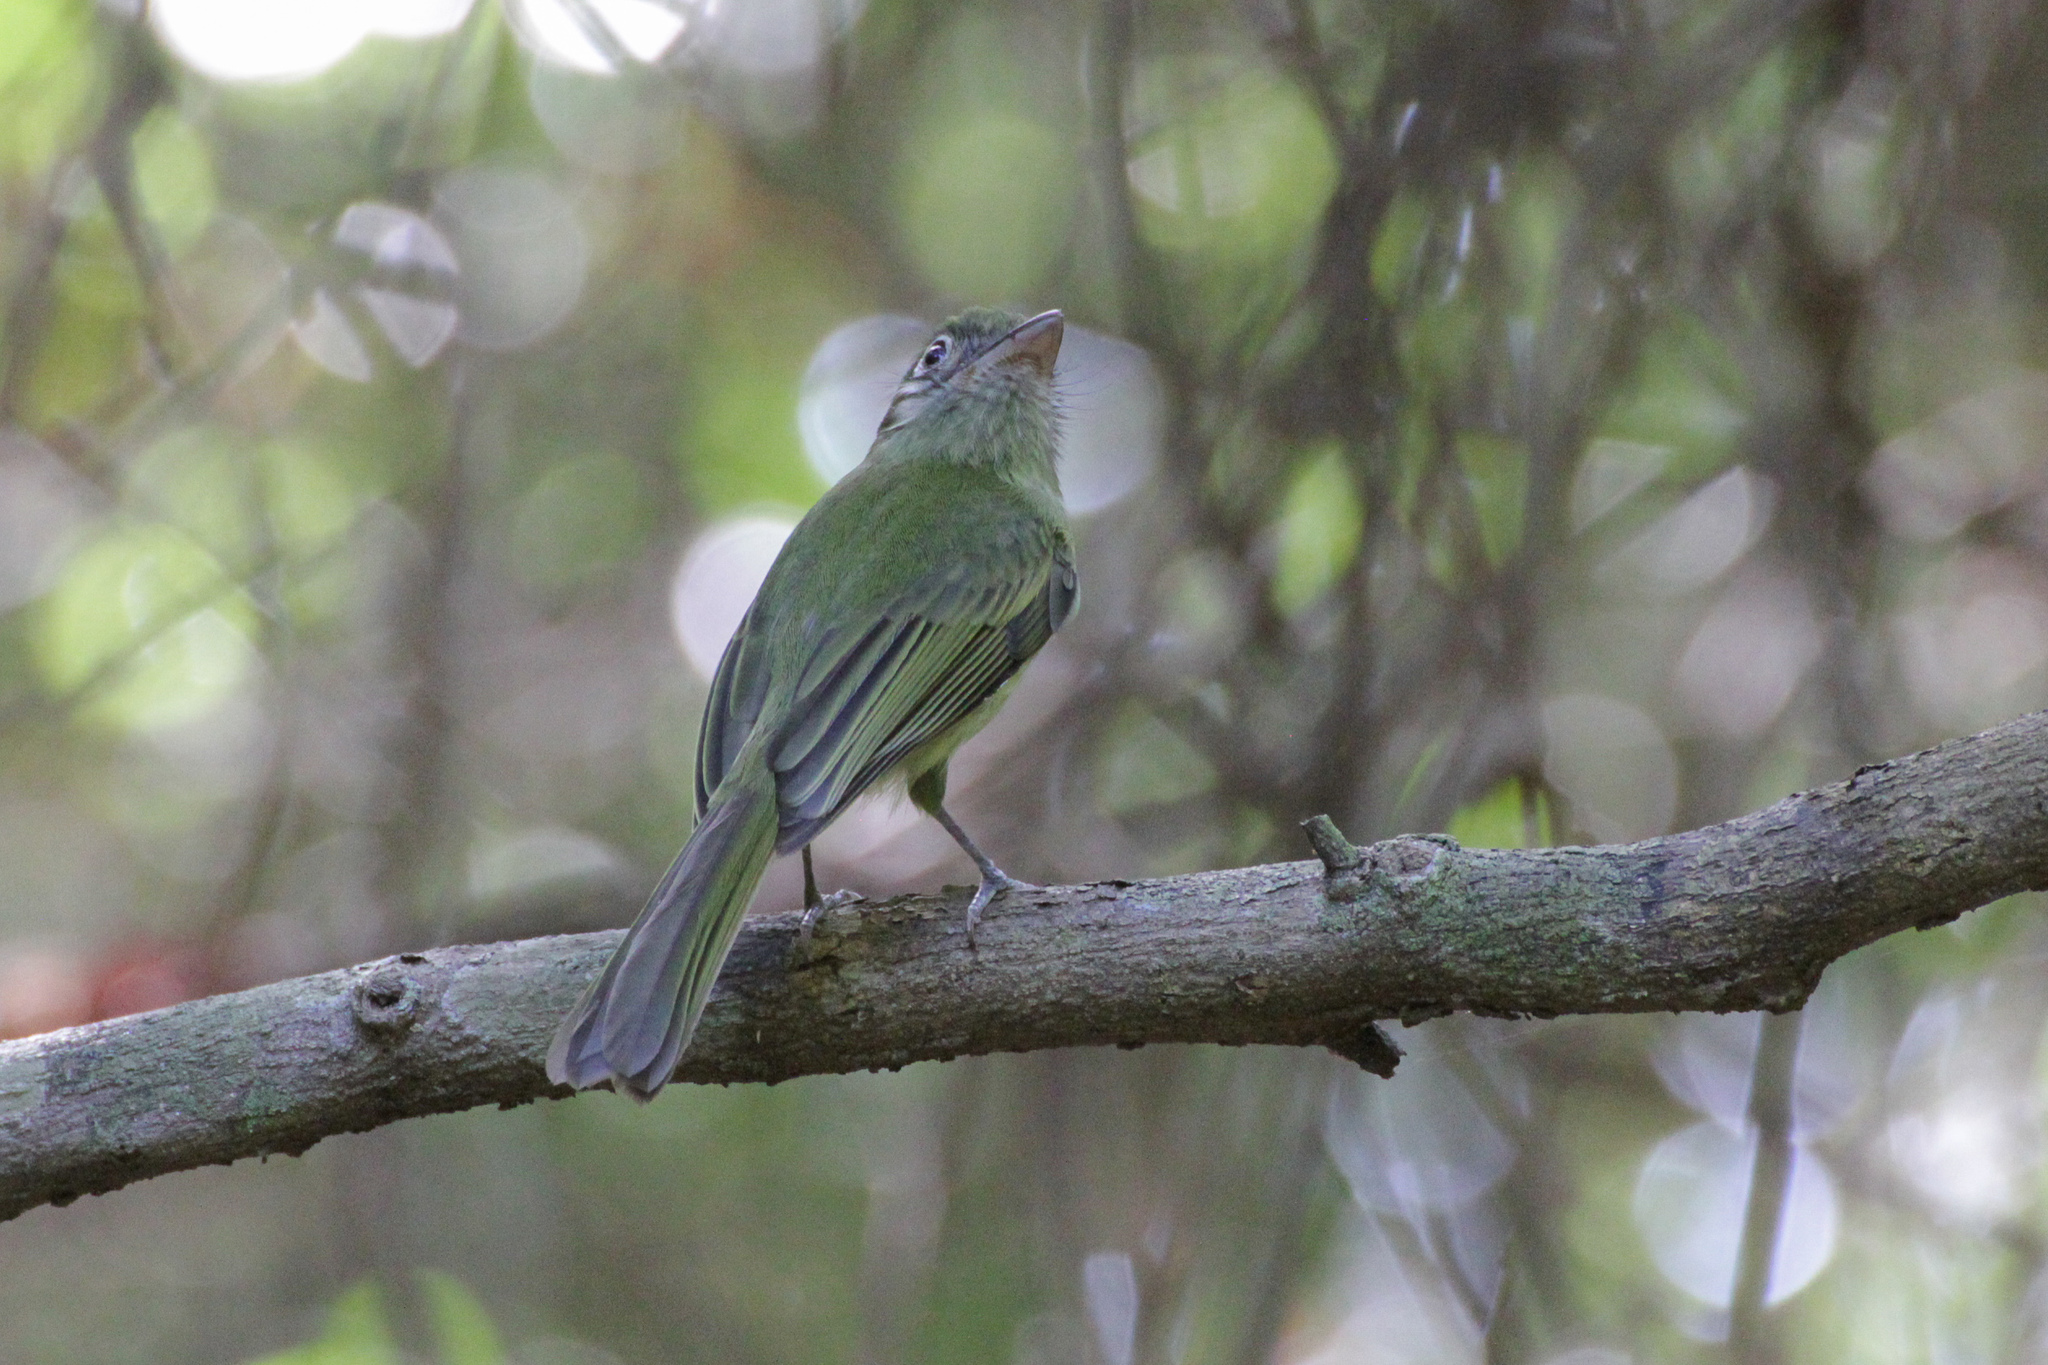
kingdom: Animalia
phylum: Chordata
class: Aves
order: Passeriformes
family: Tyrannidae
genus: Rhynchocyclus
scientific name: Rhynchocyclus brevirostris
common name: Eye-ringed flatbill
